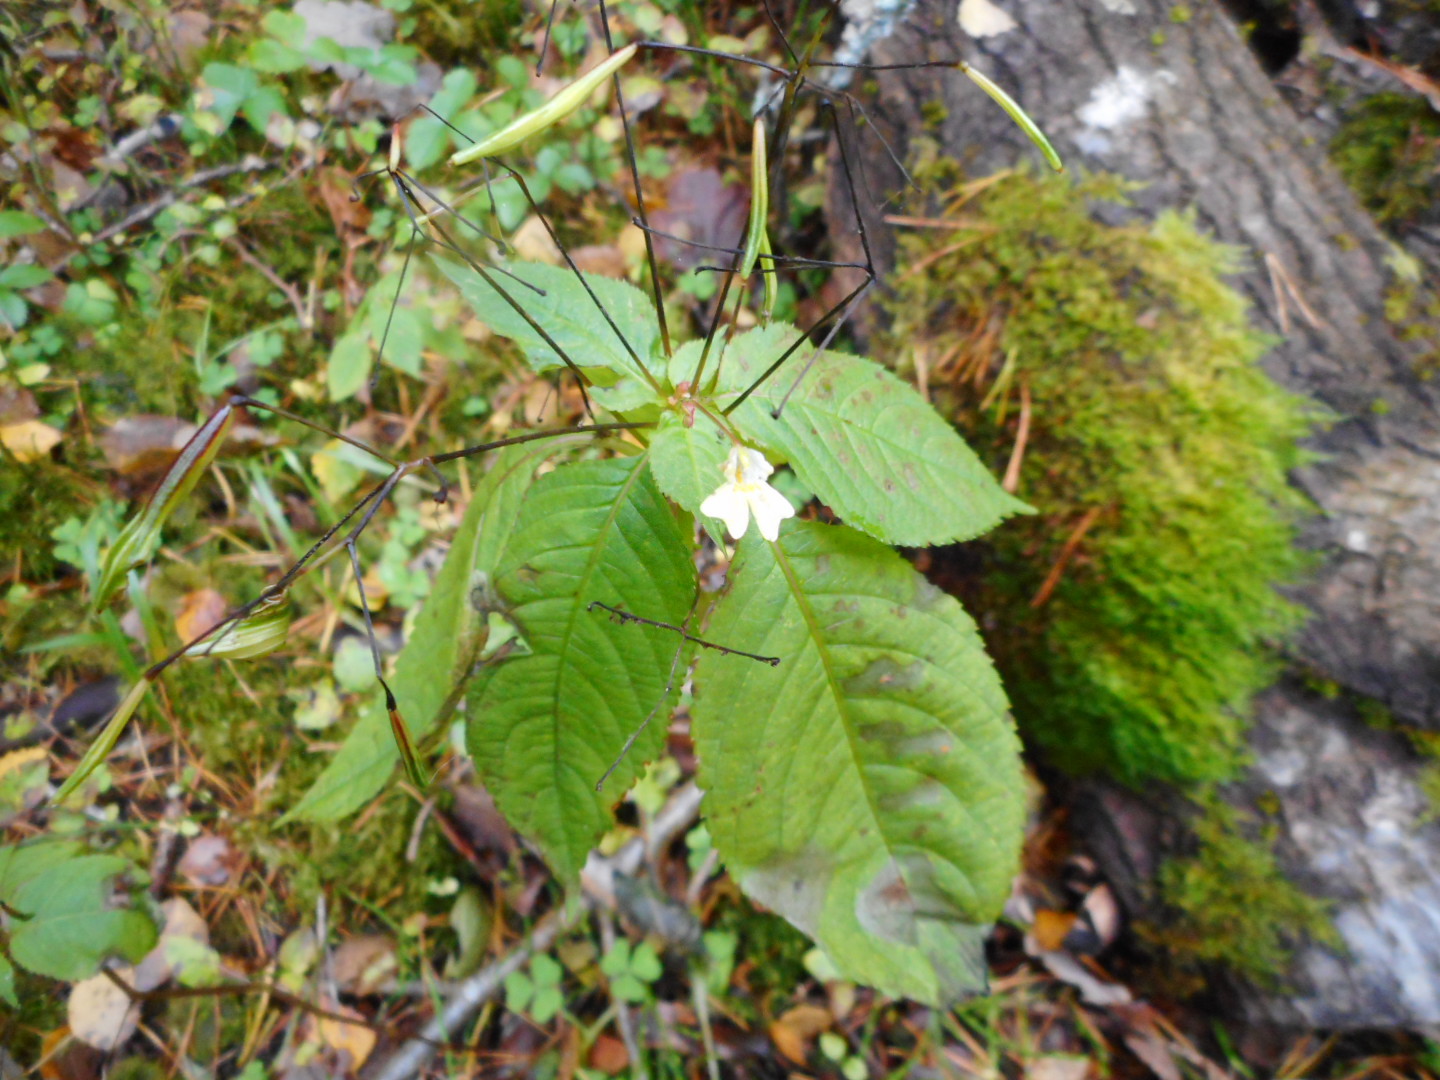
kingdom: Plantae
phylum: Tracheophyta
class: Magnoliopsida
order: Ericales
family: Balsaminaceae
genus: Impatiens
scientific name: Impatiens parviflora
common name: Small balsam
